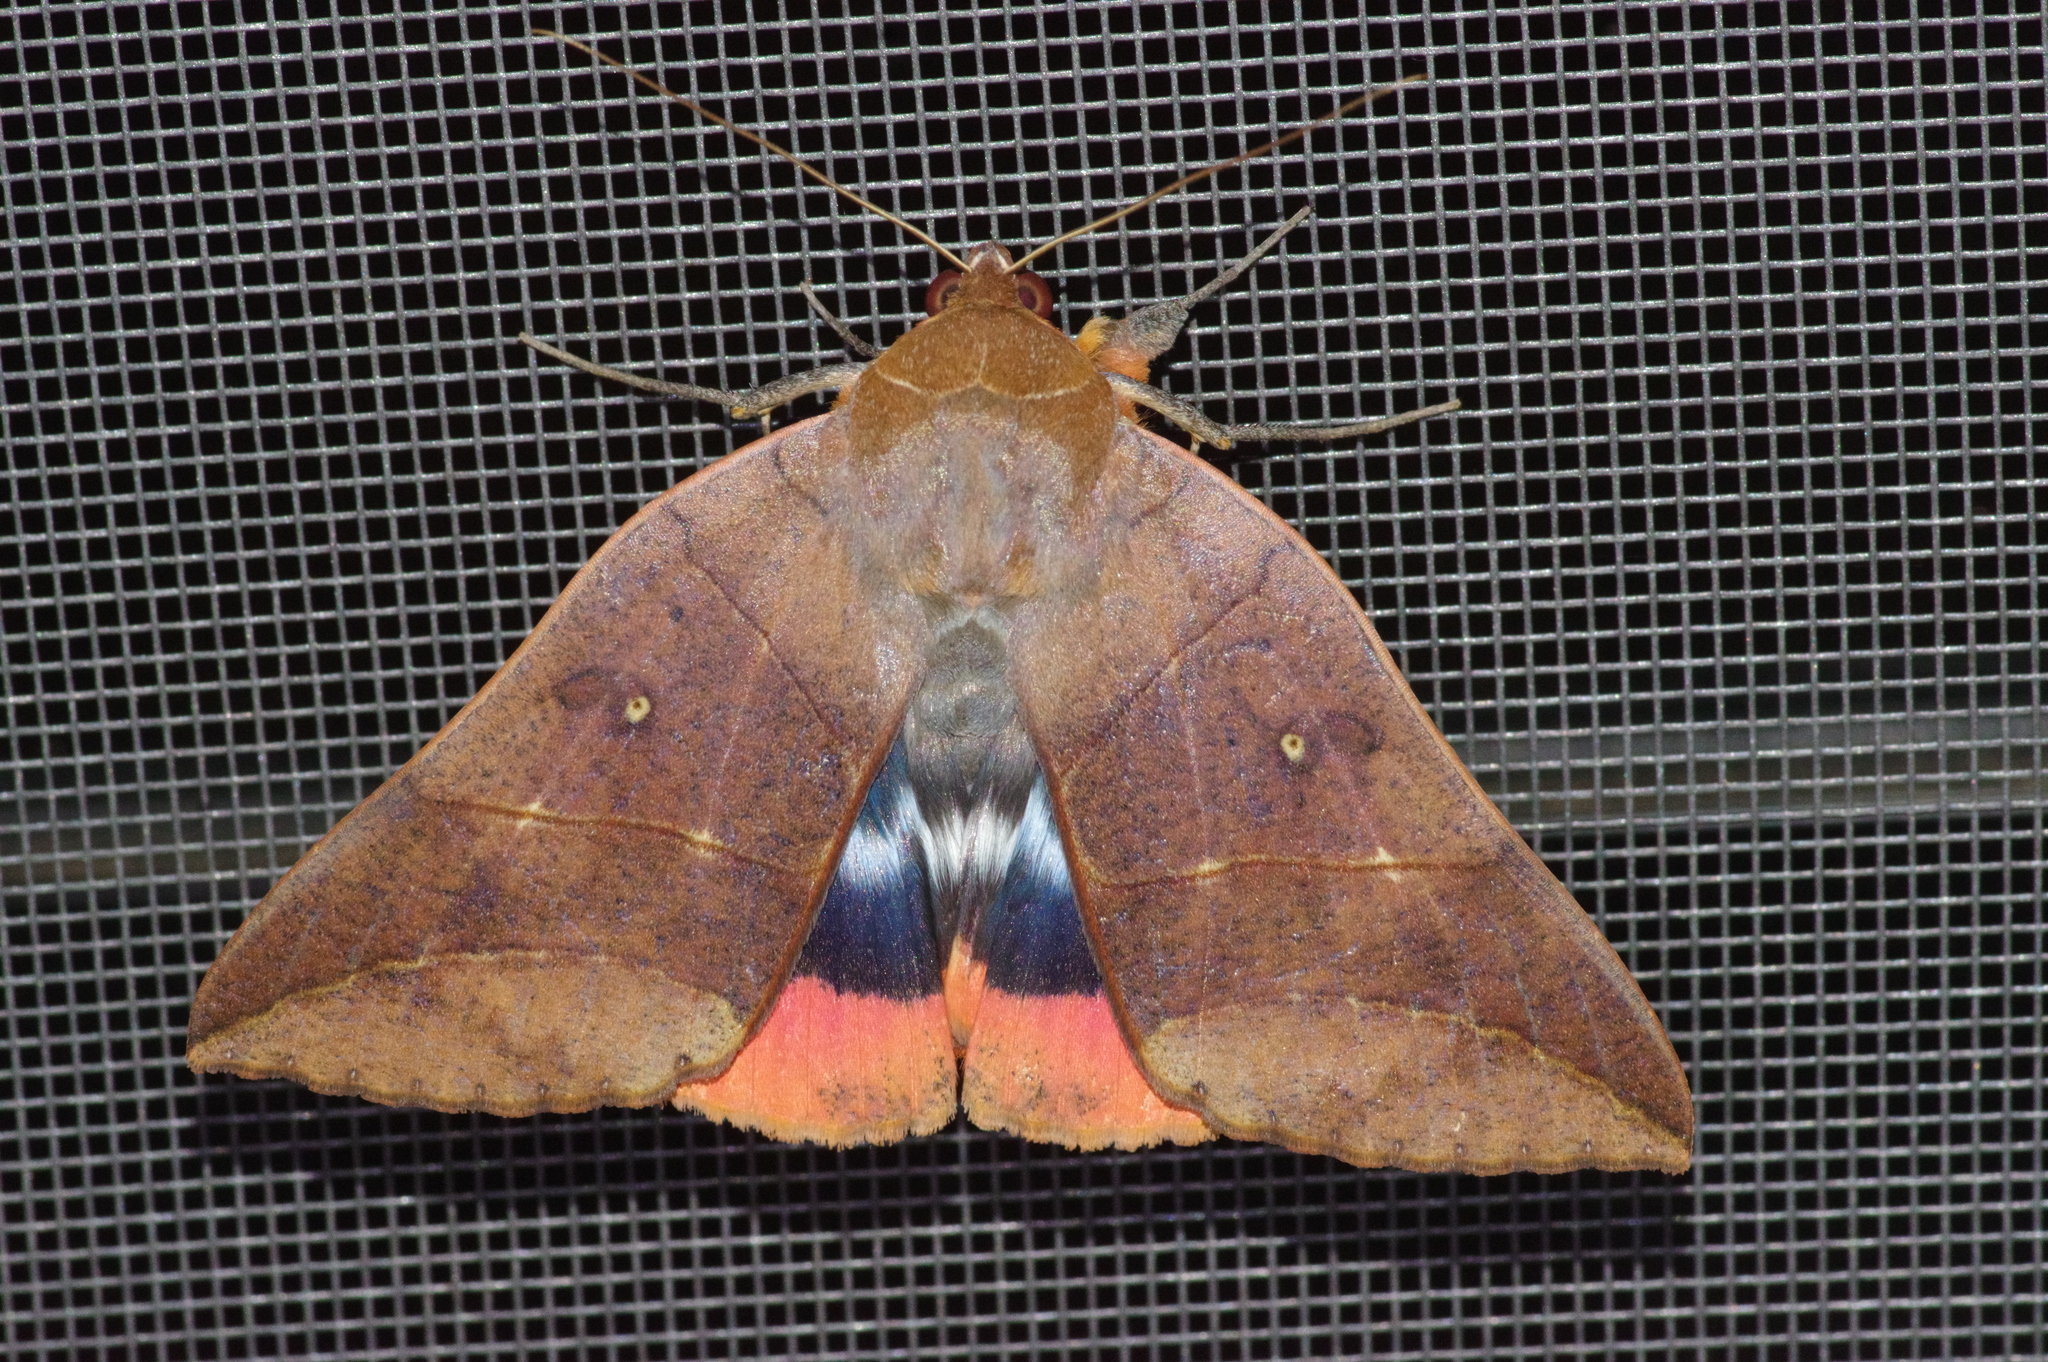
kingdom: Animalia
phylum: Arthropoda
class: Insecta
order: Lepidoptera
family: Erebidae
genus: Thyas
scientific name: Thyas juno
